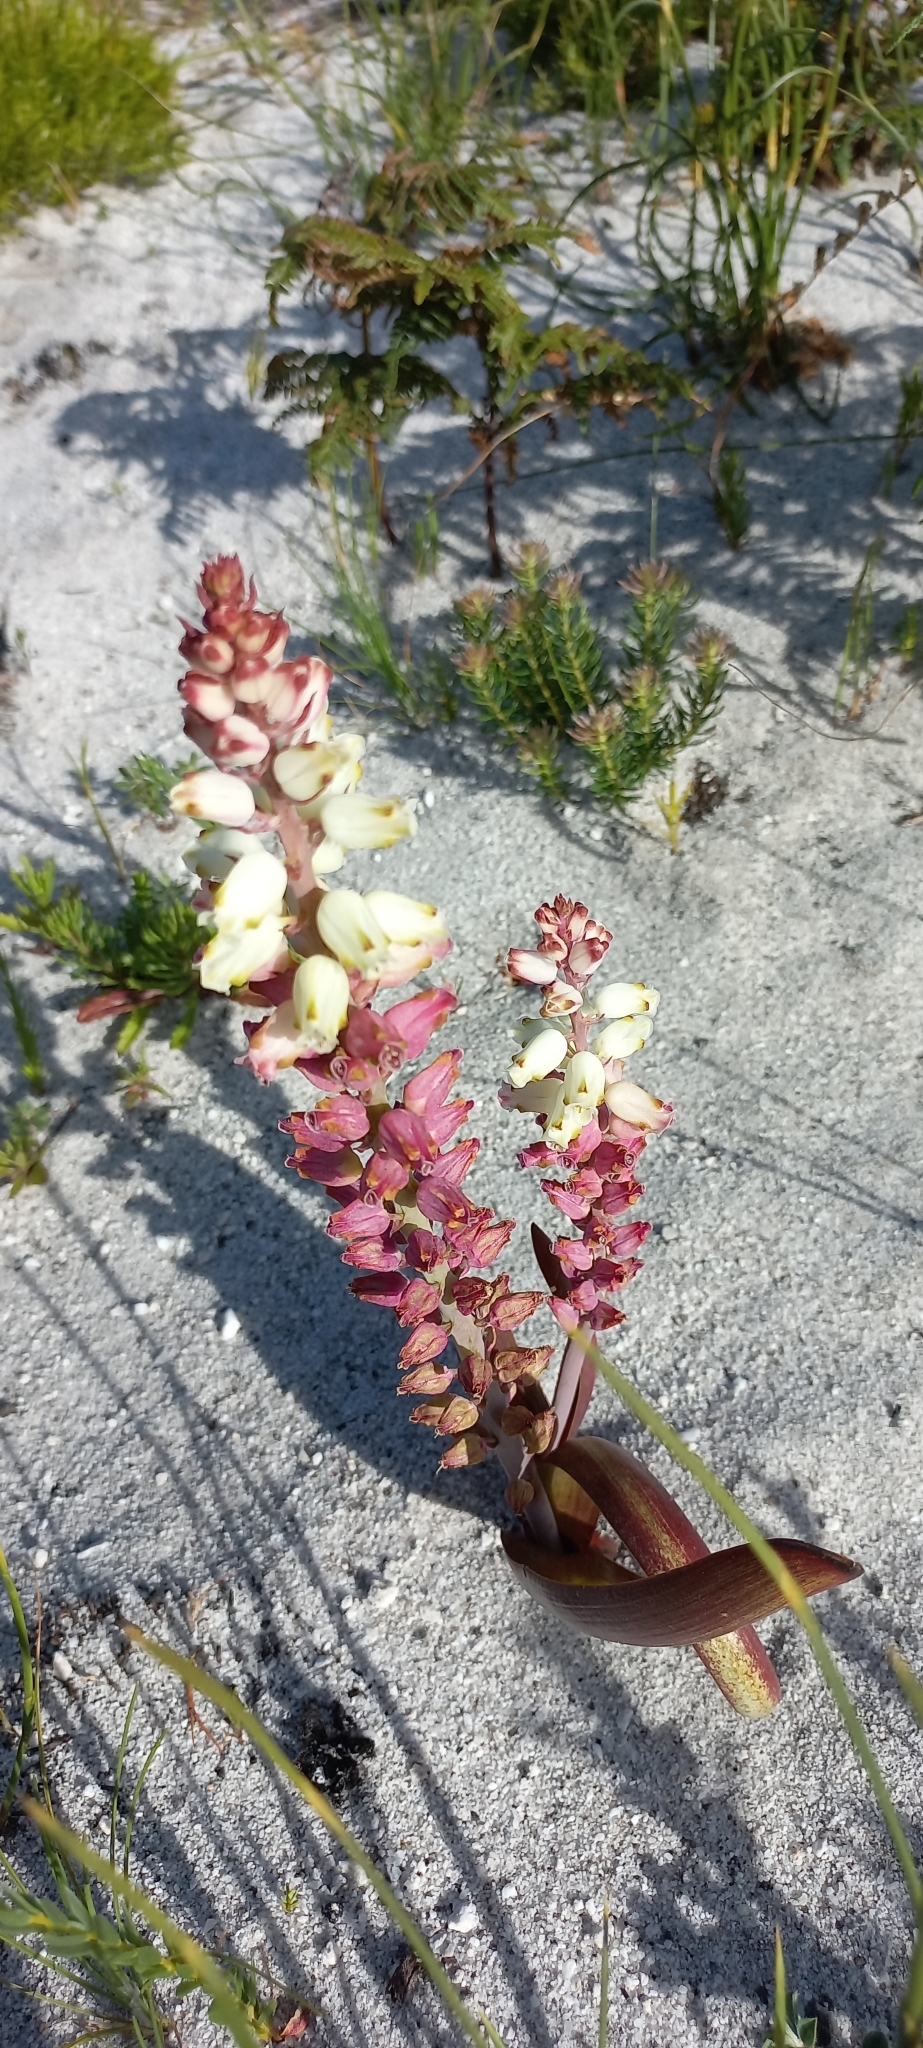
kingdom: Plantae
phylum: Tracheophyta
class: Liliopsida
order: Asparagales
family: Asparagaceae
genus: Lachenalia
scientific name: Lachenalia peersii
